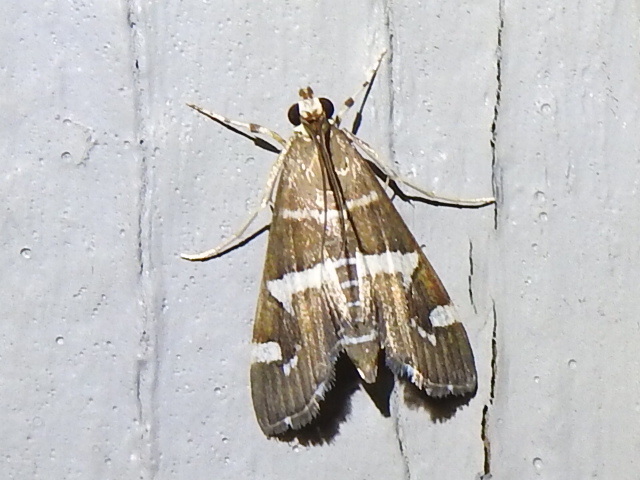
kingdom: Animalia
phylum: Arthropoda
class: Insecta
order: Lepidoptera
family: Crambidae
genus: Spoladea
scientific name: Spoladea recurvalis
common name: Beet webworm moth
